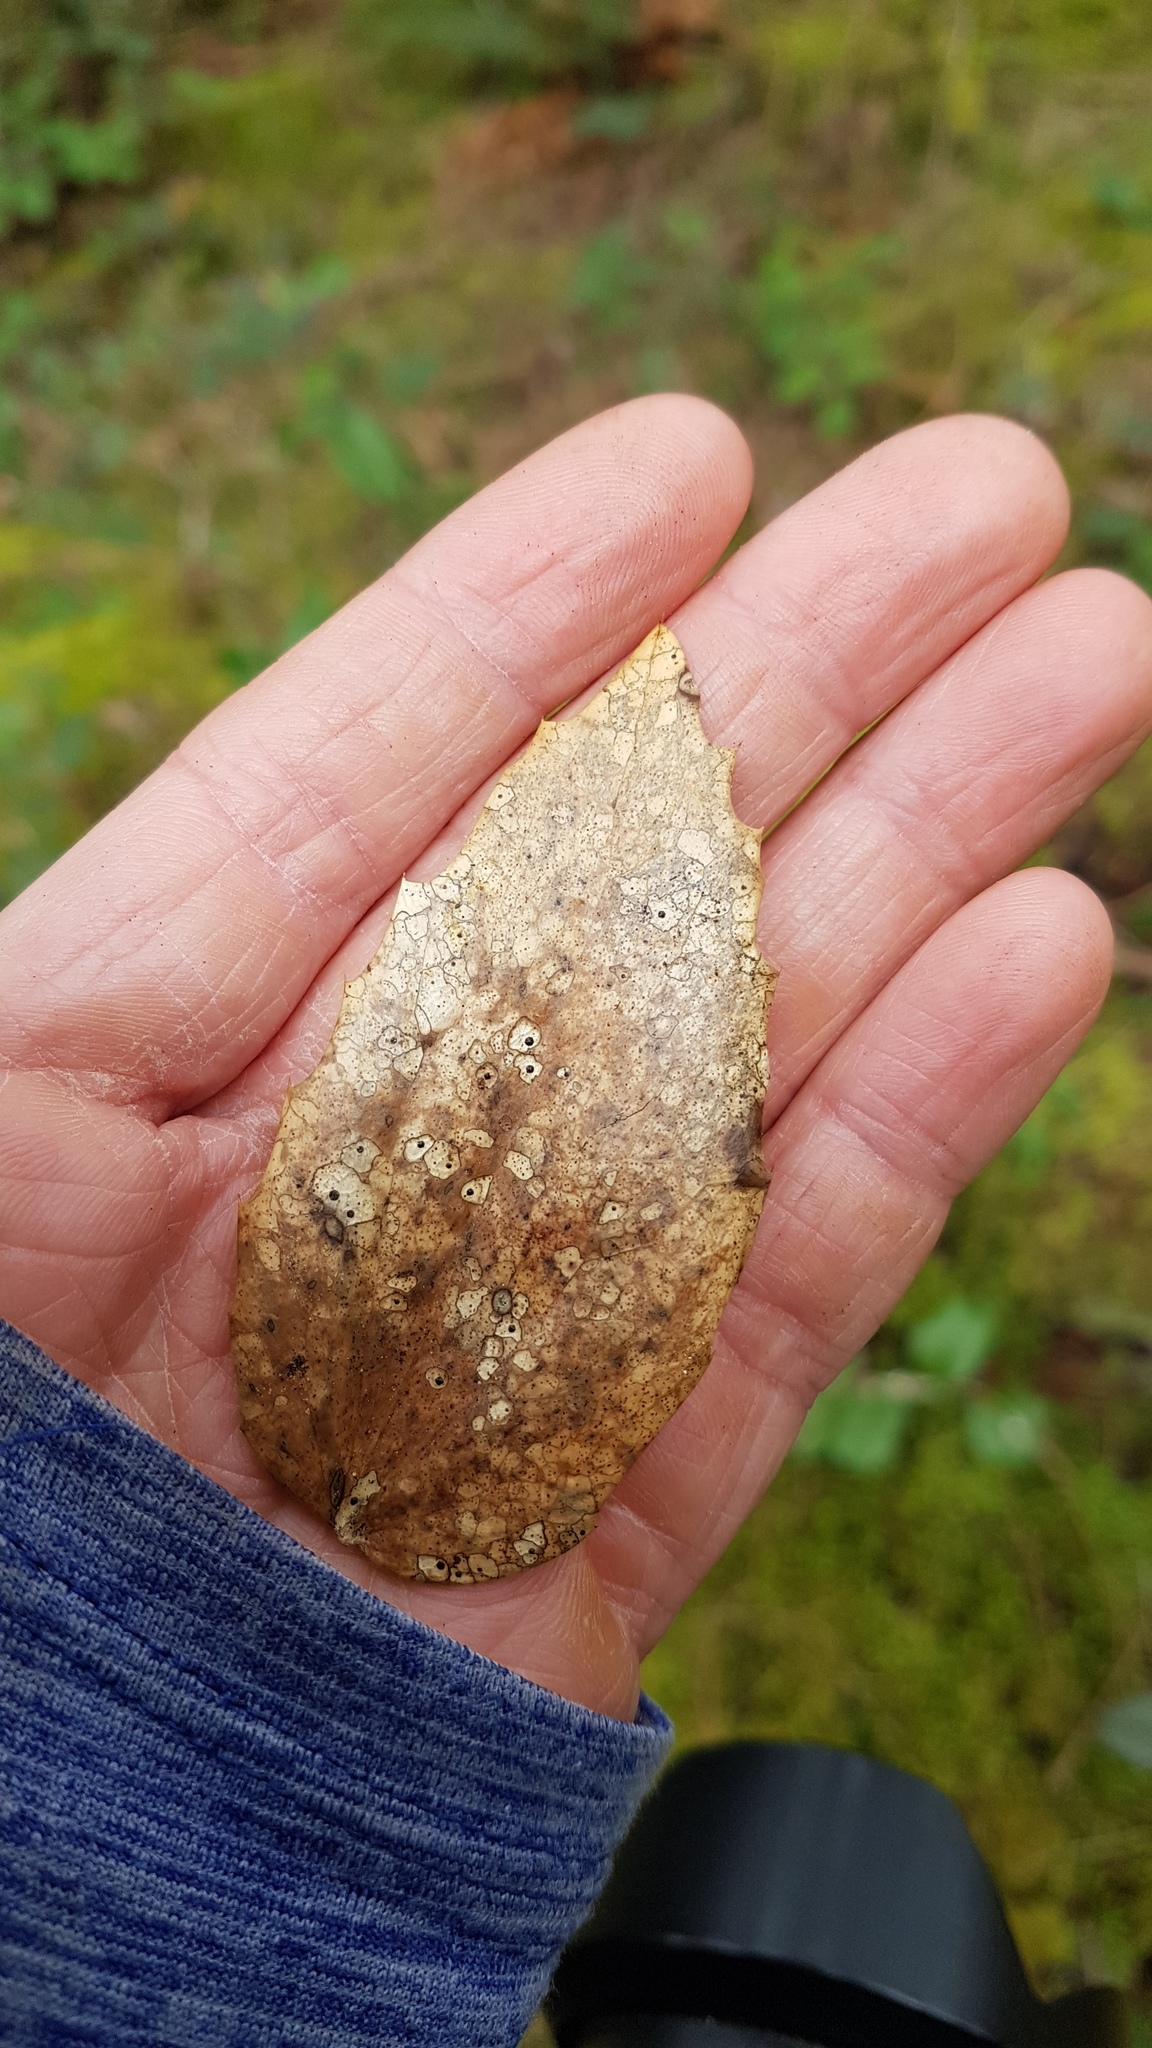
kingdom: Fungi
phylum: Ascomycota
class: Leotiomycetes
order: Rhytismatales
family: Rhytismataceae
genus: Coccomyces
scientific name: Coccomyces dentatus
